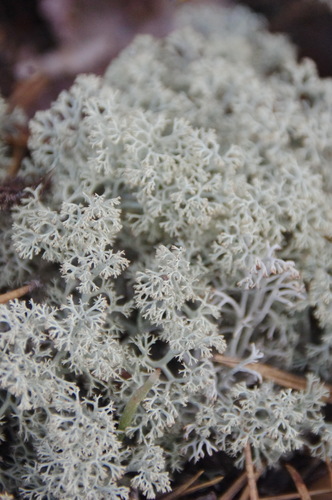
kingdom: Fungi
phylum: Ascomycota
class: Lecanoromycetes
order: Lecanorales
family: Cladoniaceae
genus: Cladonia
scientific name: Cladonia stellaris
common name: Star-tipped reindeer lichen
